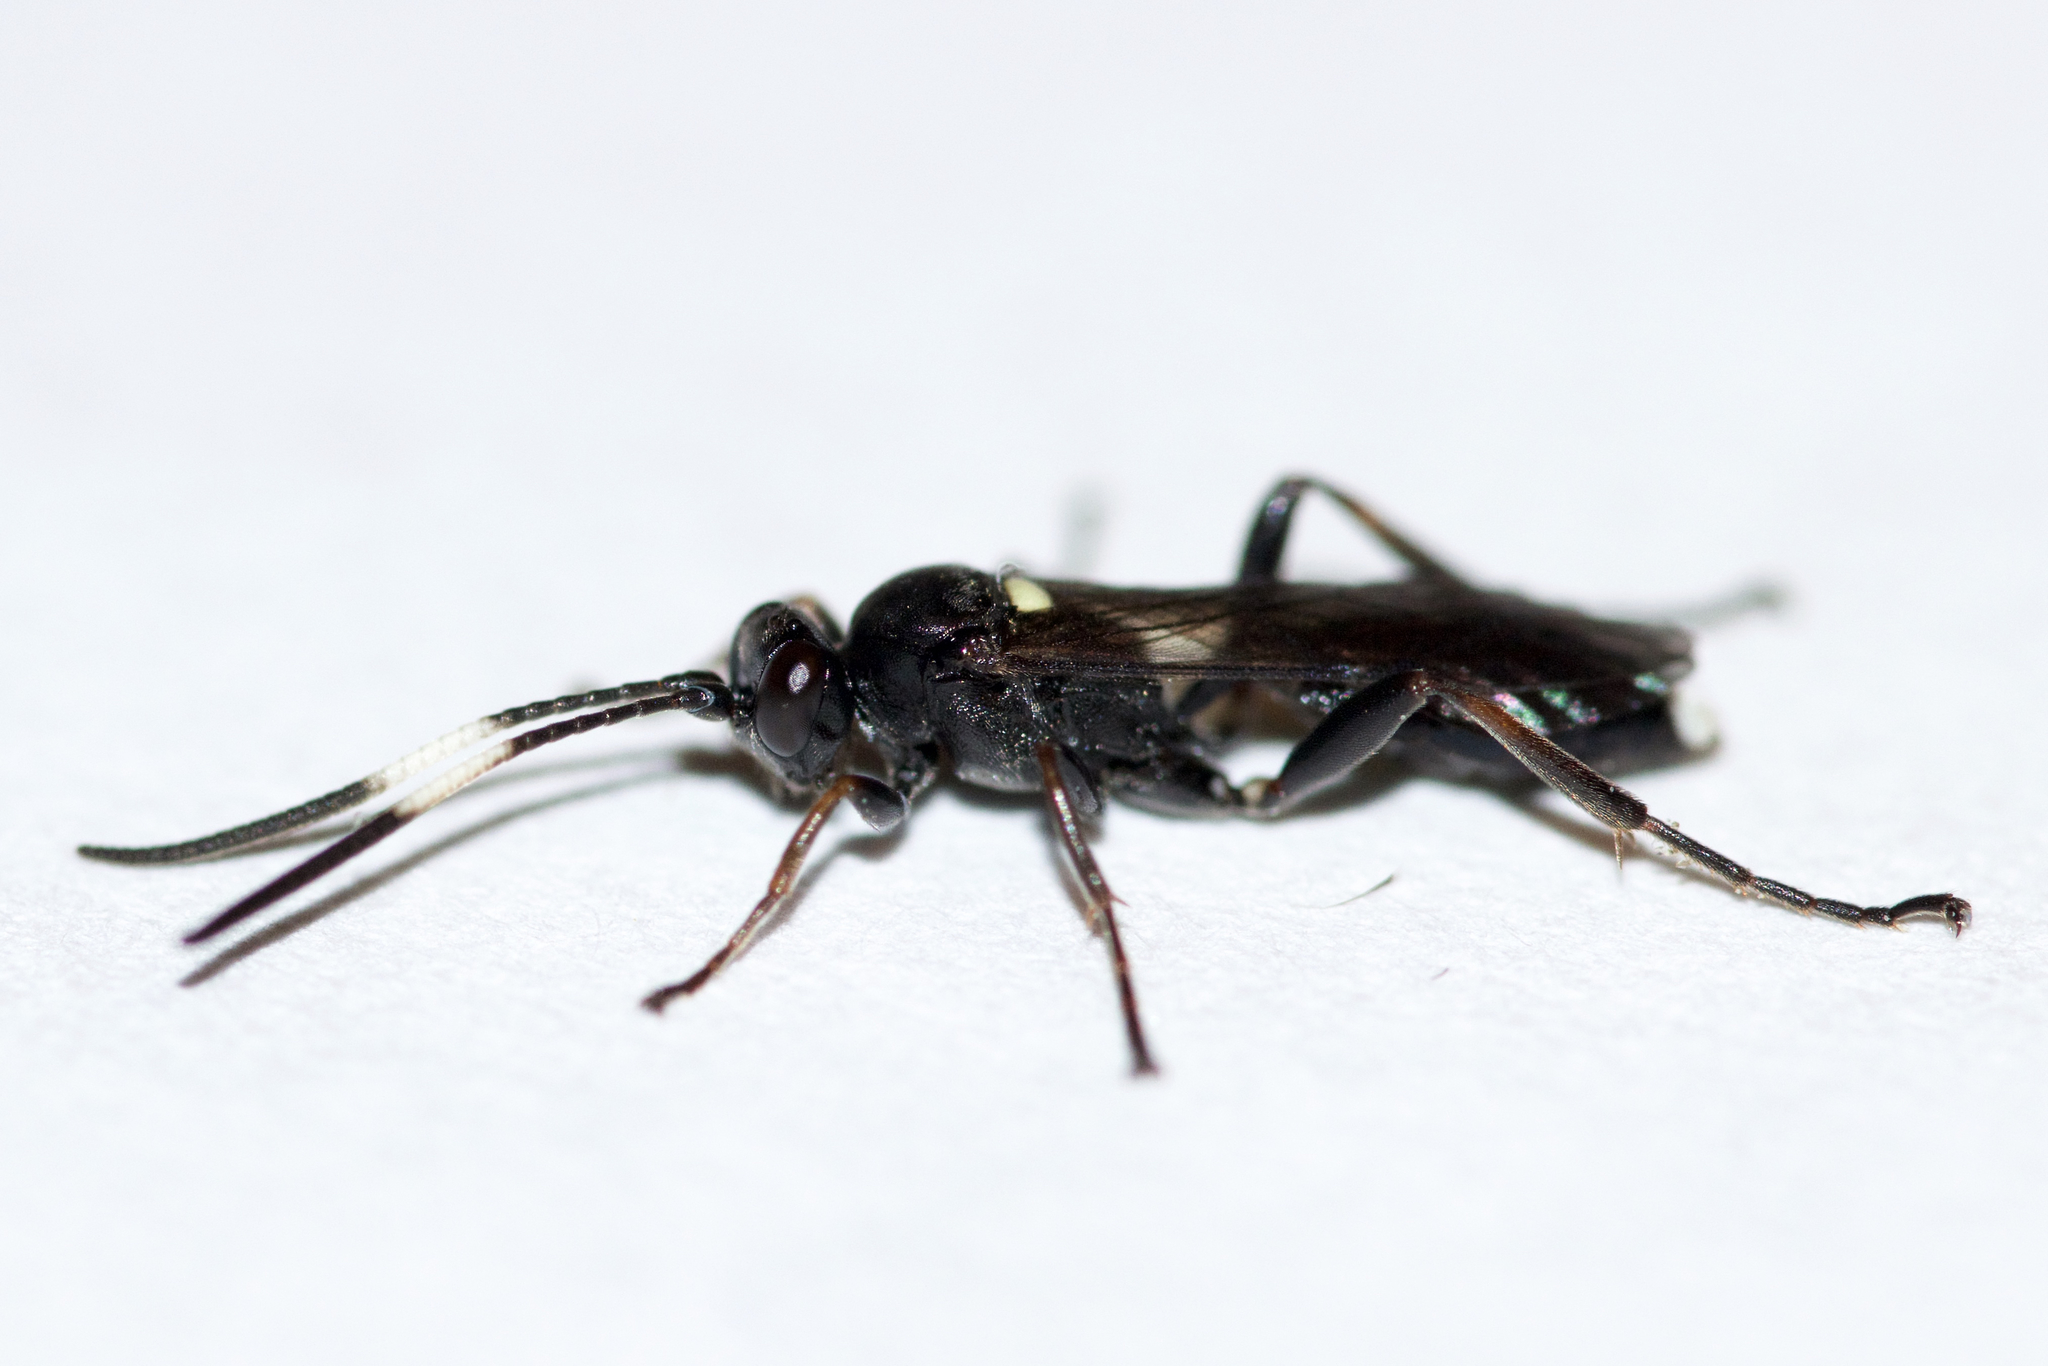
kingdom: Animalia
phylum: Arthropoda
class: Insecta
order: Hymenoptera
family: Ichneumonidae
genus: Vulgichneumon
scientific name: Vulgichneumon brevicinctor
